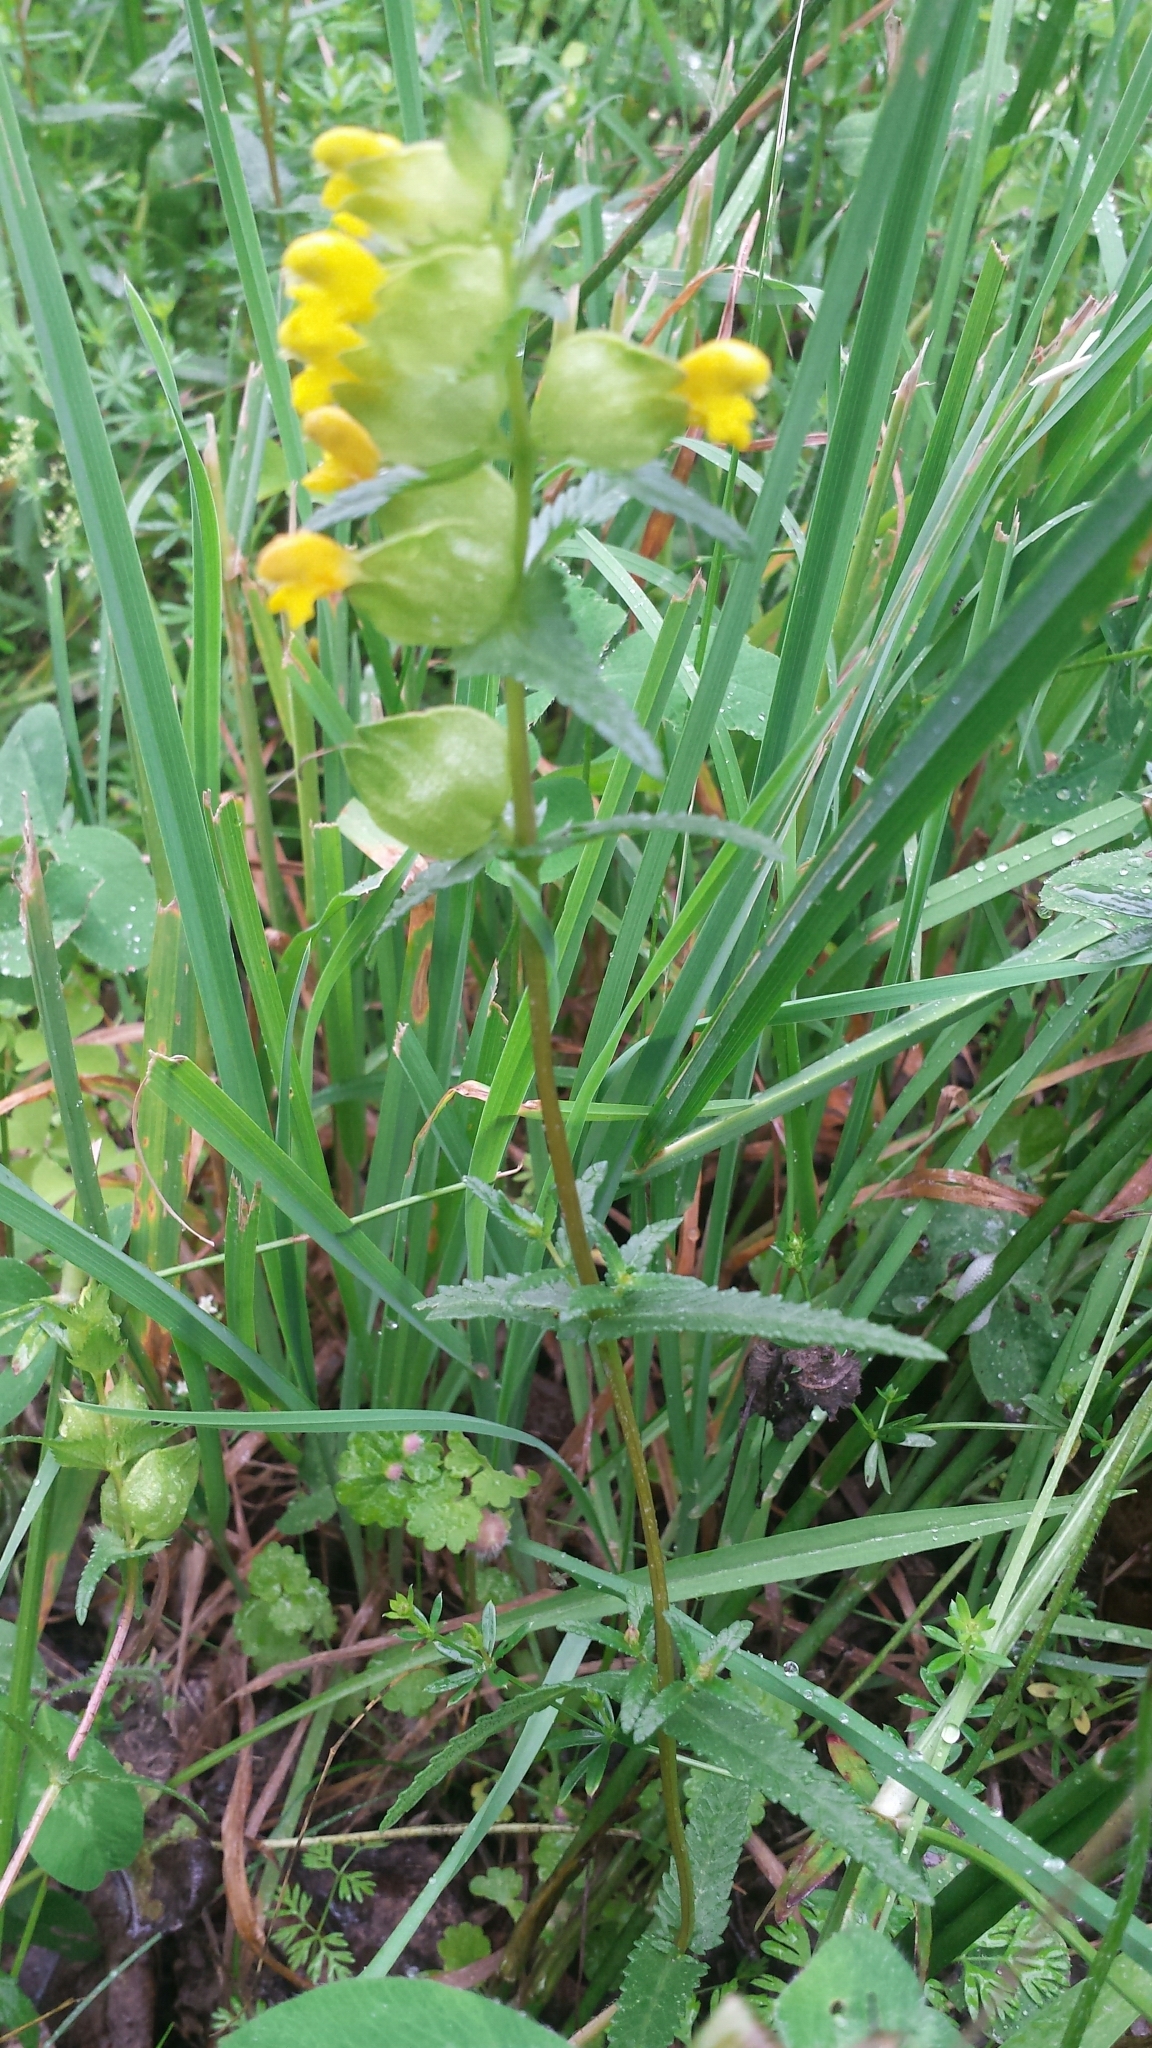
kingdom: Plantae
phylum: Tracheophyta
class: Magnoliopsida
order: Lamiales
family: Orobanchaceae
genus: Rhinanthus
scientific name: Rhinanthus minor
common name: Yellow-rattle
